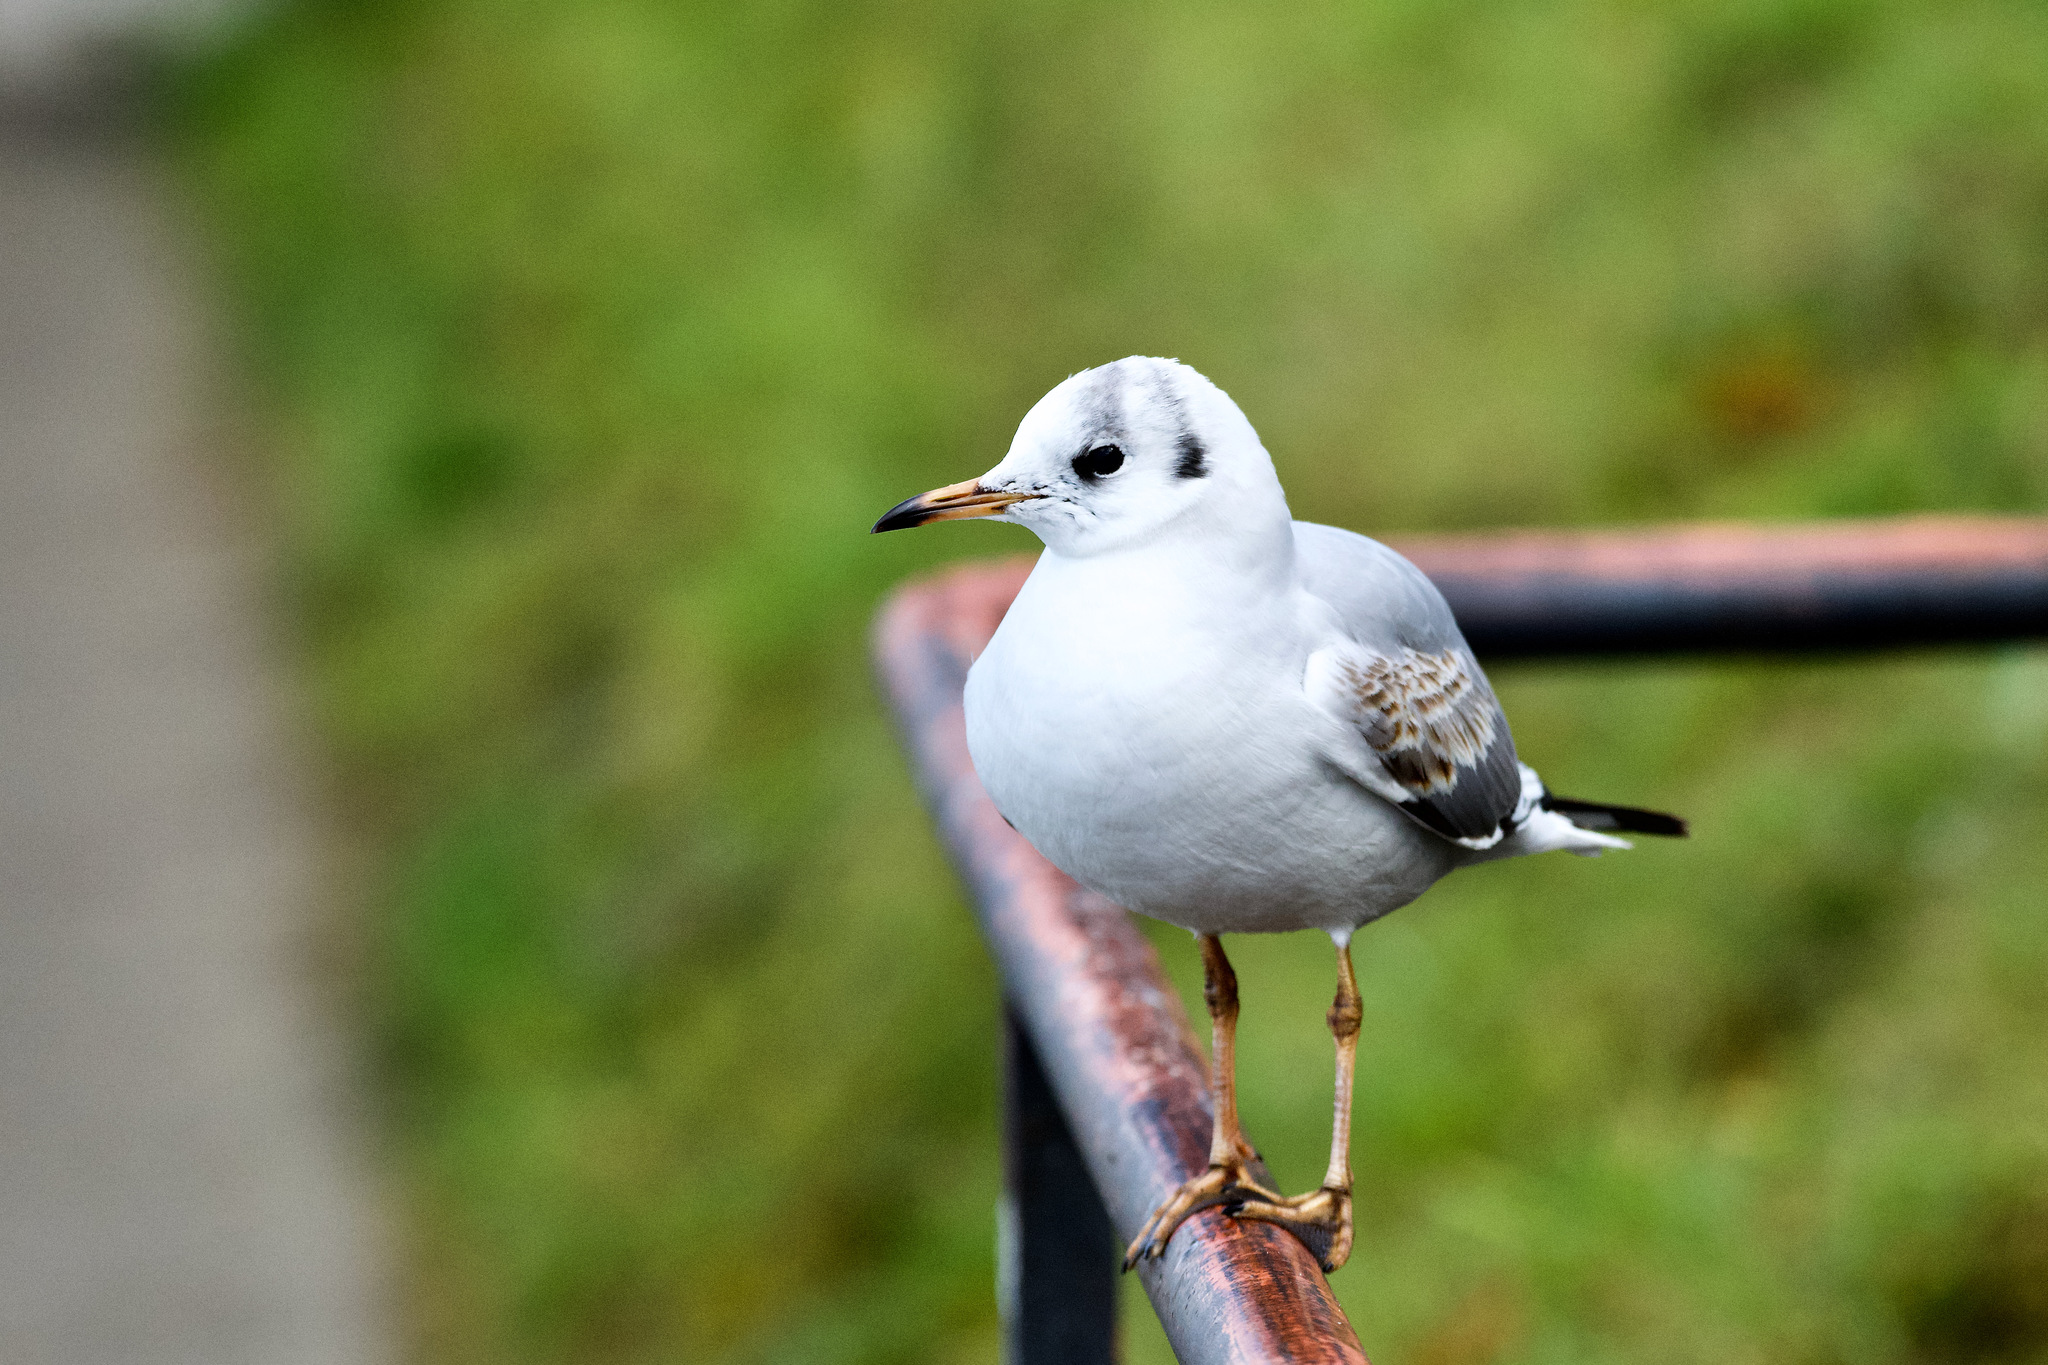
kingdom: Animalia
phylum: Chordata
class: Aves
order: Charadriiformes
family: Laridae
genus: Chroicocephalus
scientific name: Chroicocephalus ridibundus
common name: Black-headed gull
